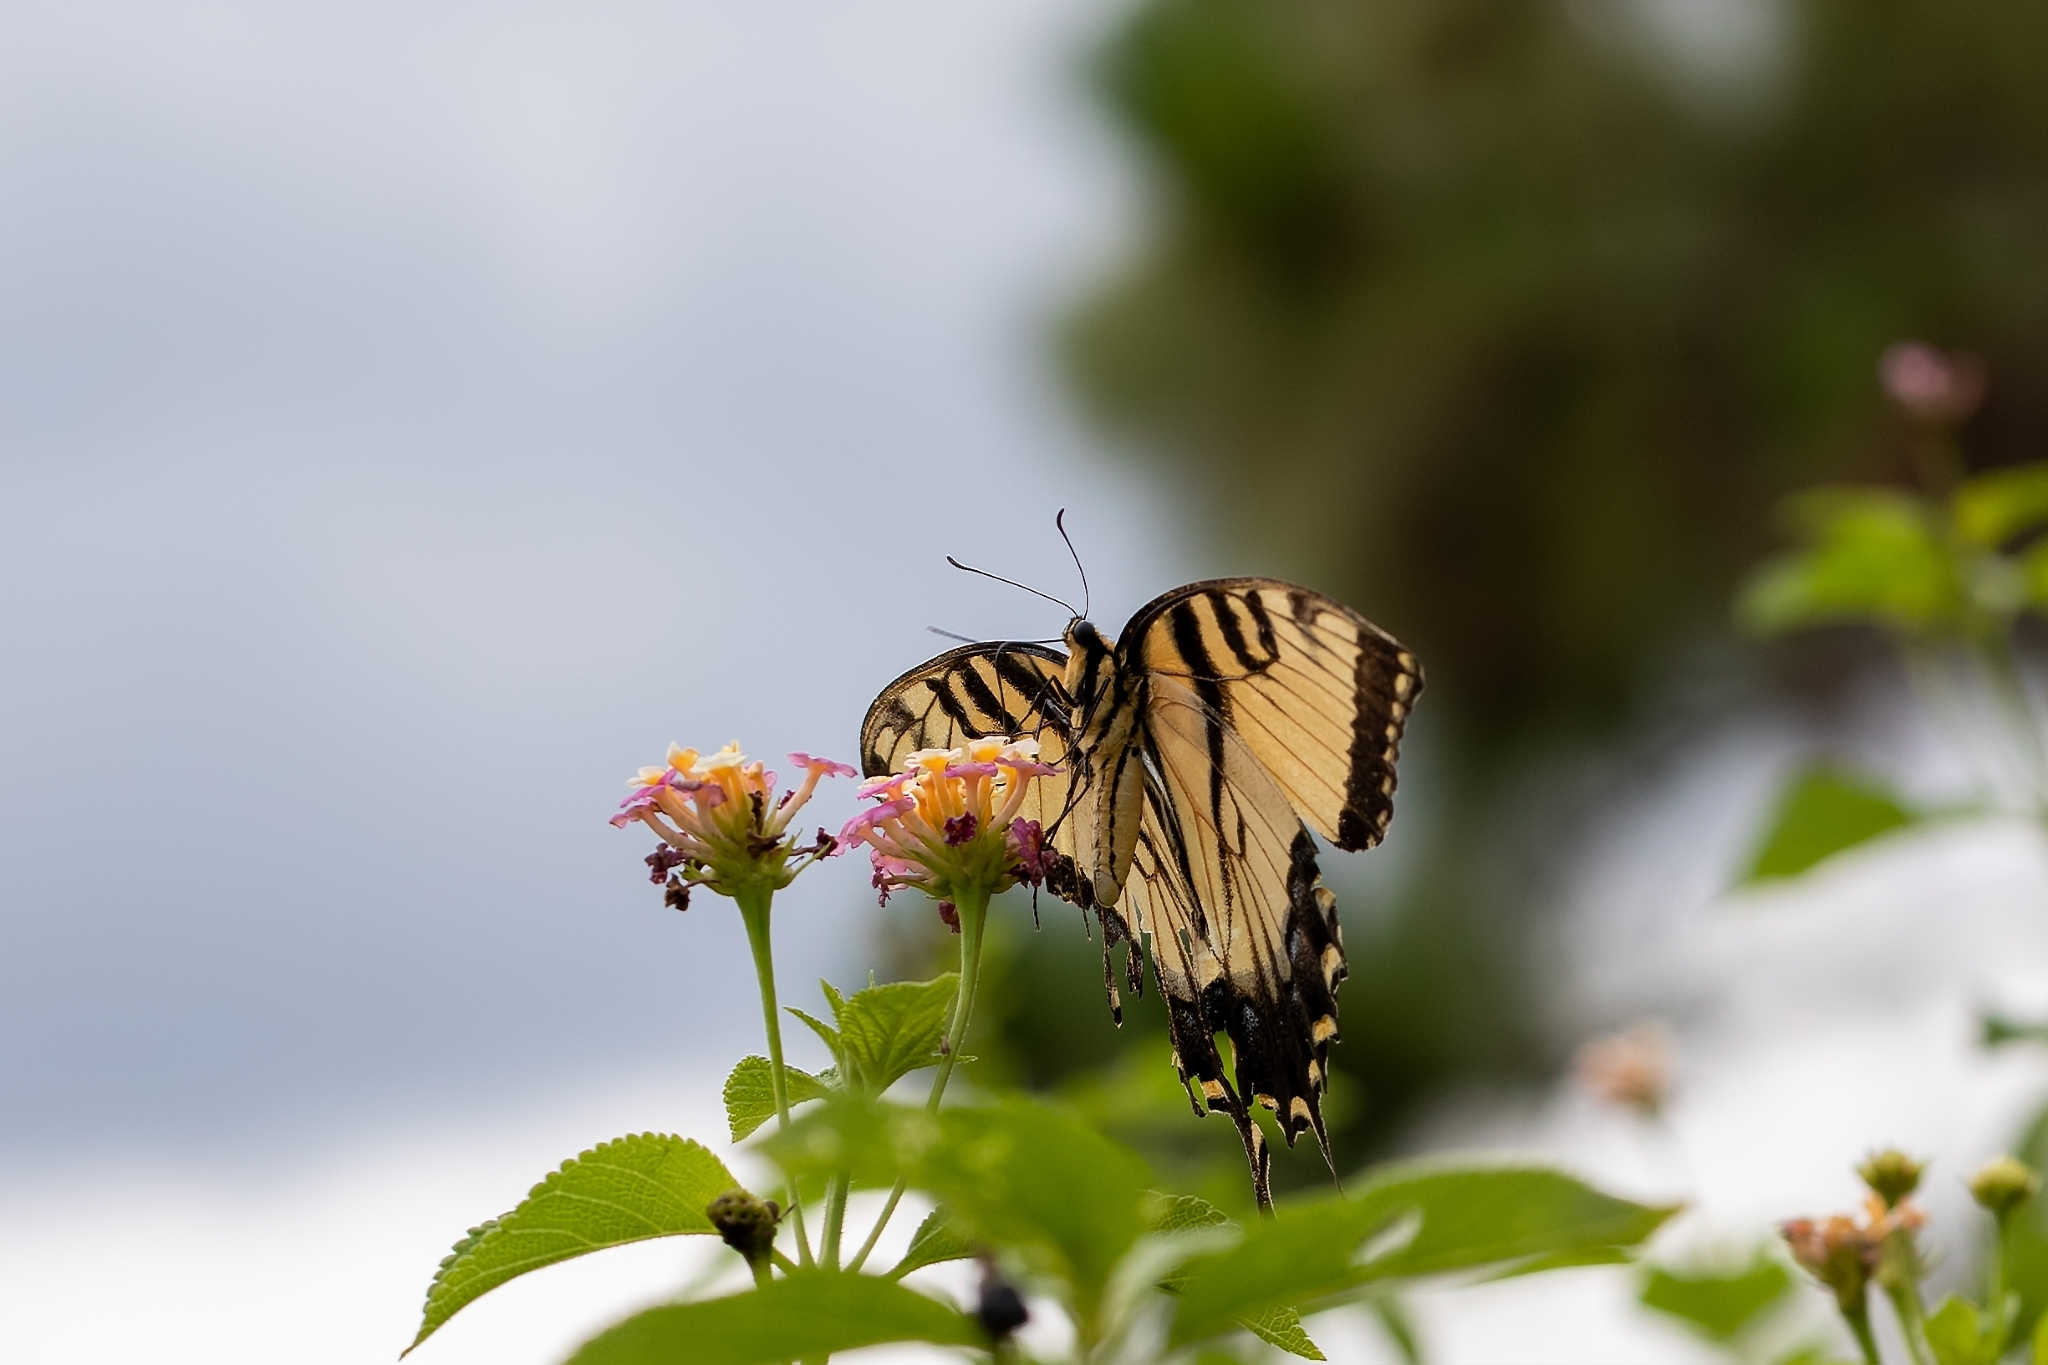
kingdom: Animalia
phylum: Arthropoda
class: Insecta
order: Lepidoptera
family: Papilionidae
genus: Papilio
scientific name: Papilio glaucus
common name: Tiger swallowtail
